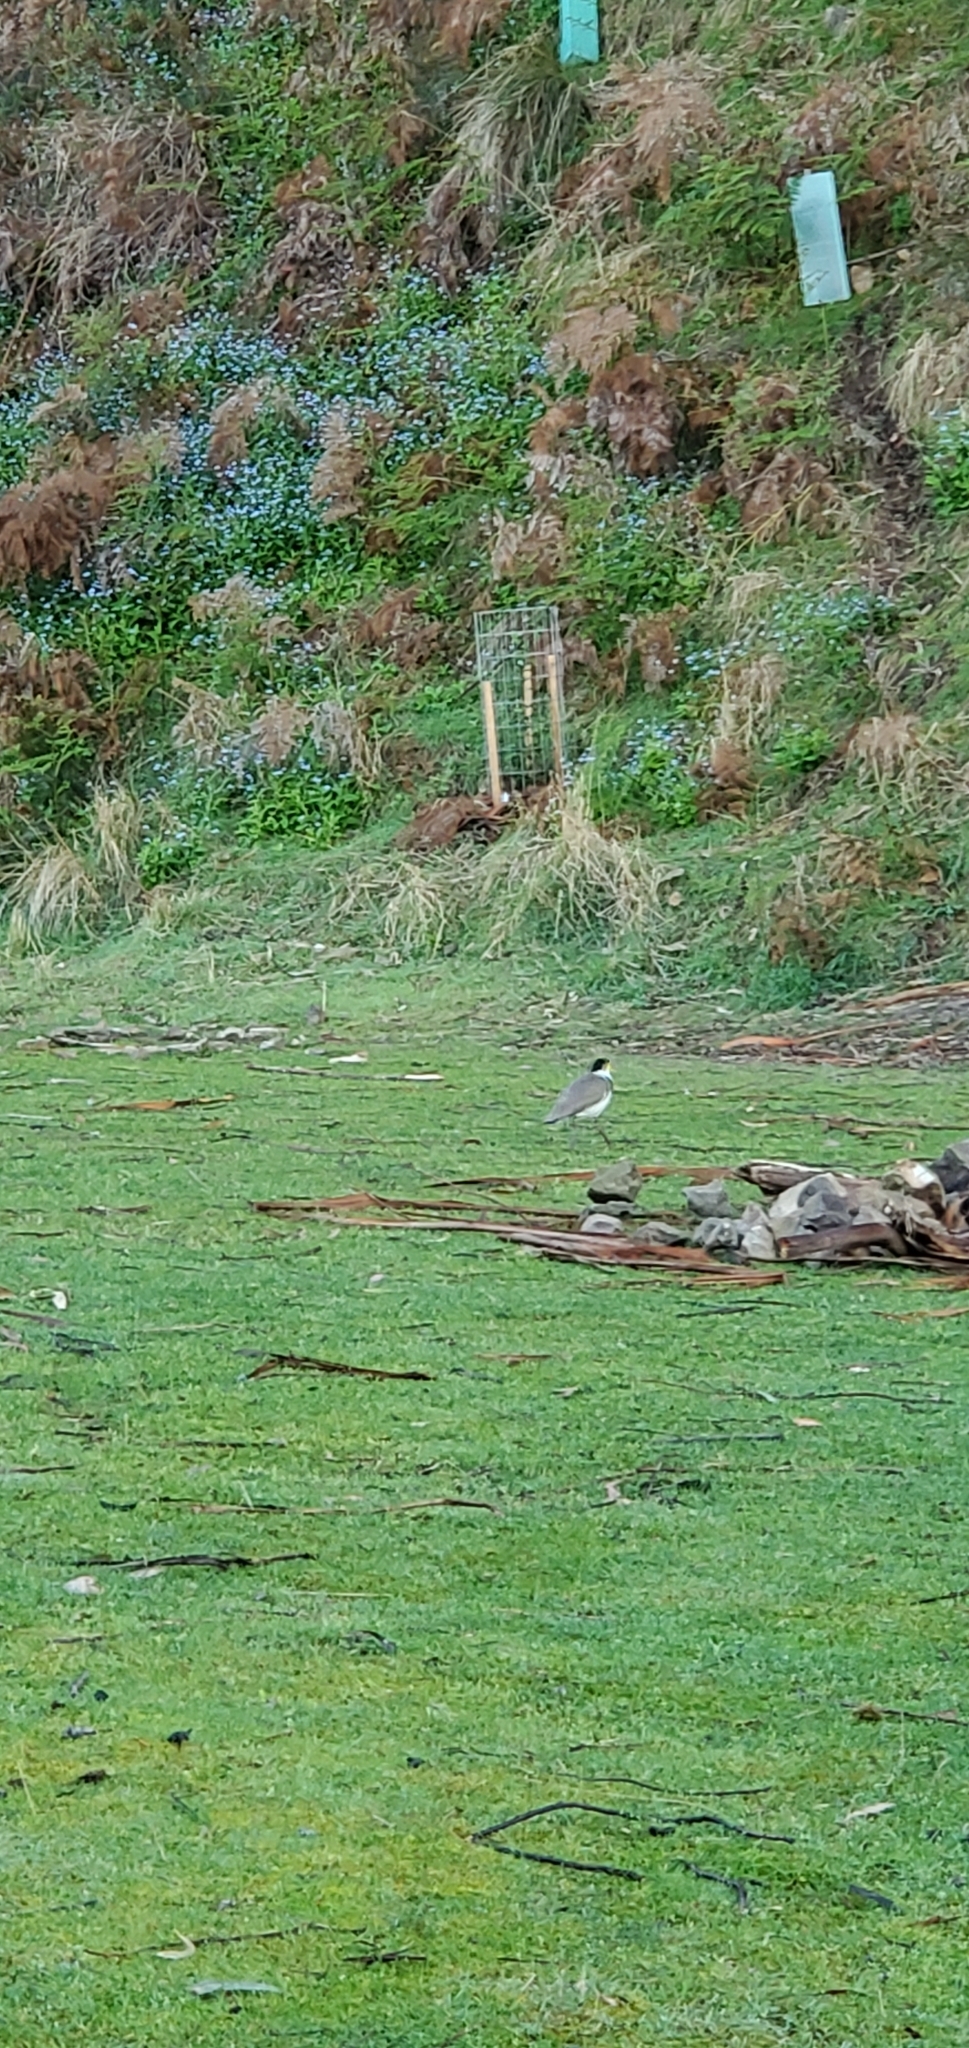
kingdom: Animalia
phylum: Chordata
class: Aves
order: Charadriiformes
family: Charadriidae
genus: Vanellus
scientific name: Vanellus miles
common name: Masked lapwing
